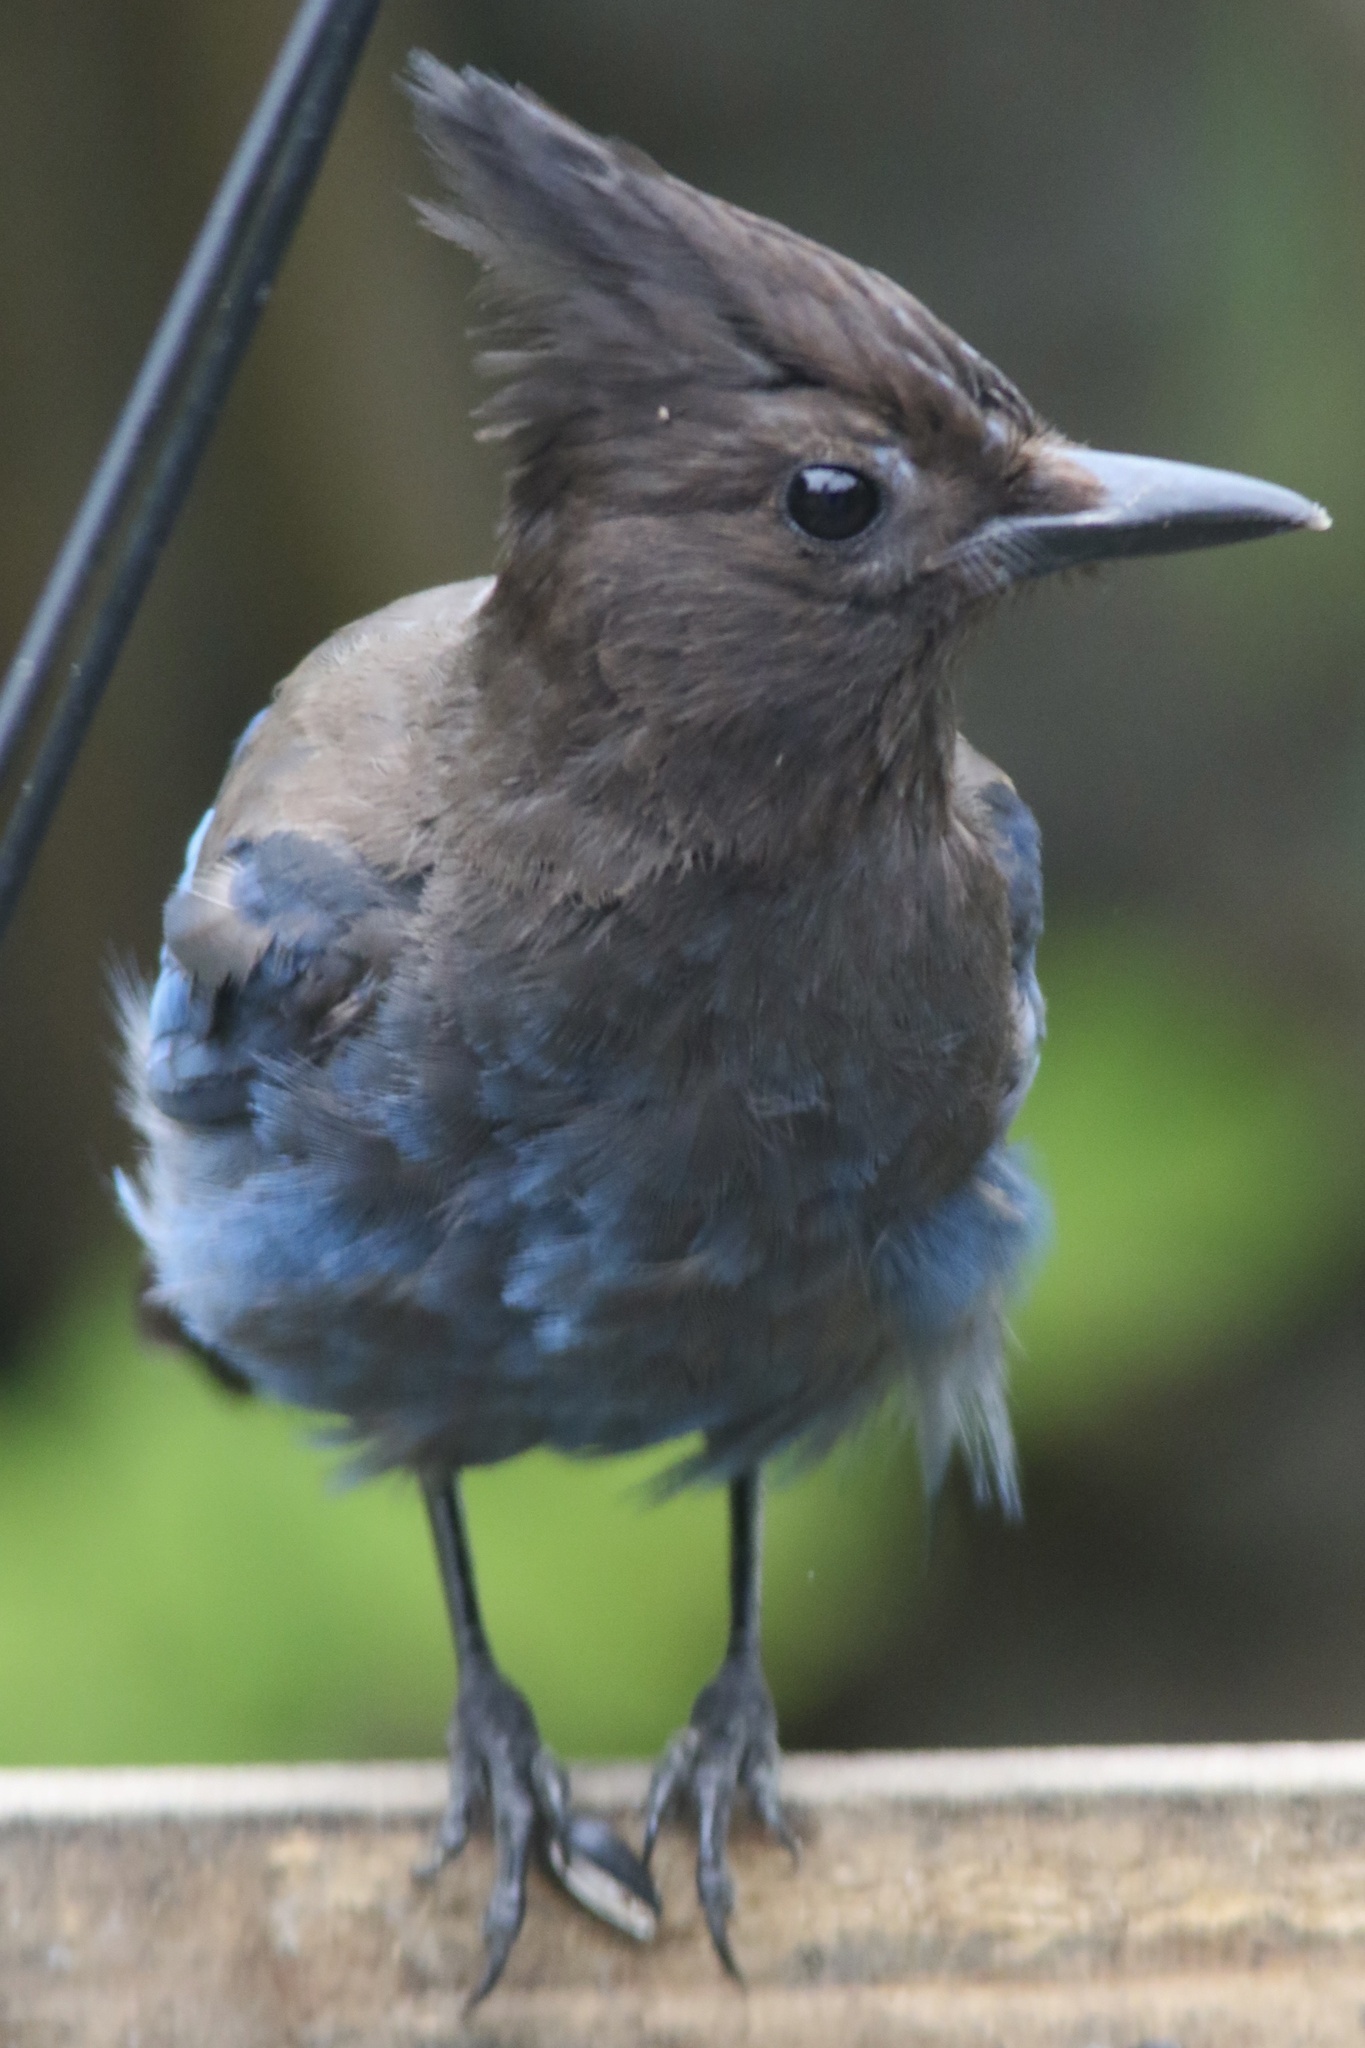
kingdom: Animalia
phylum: Chordata
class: Aves
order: Passeriformes
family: Corvidae
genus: Cyanocitta
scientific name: Cyanocitta stelleri
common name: Steller's jay
